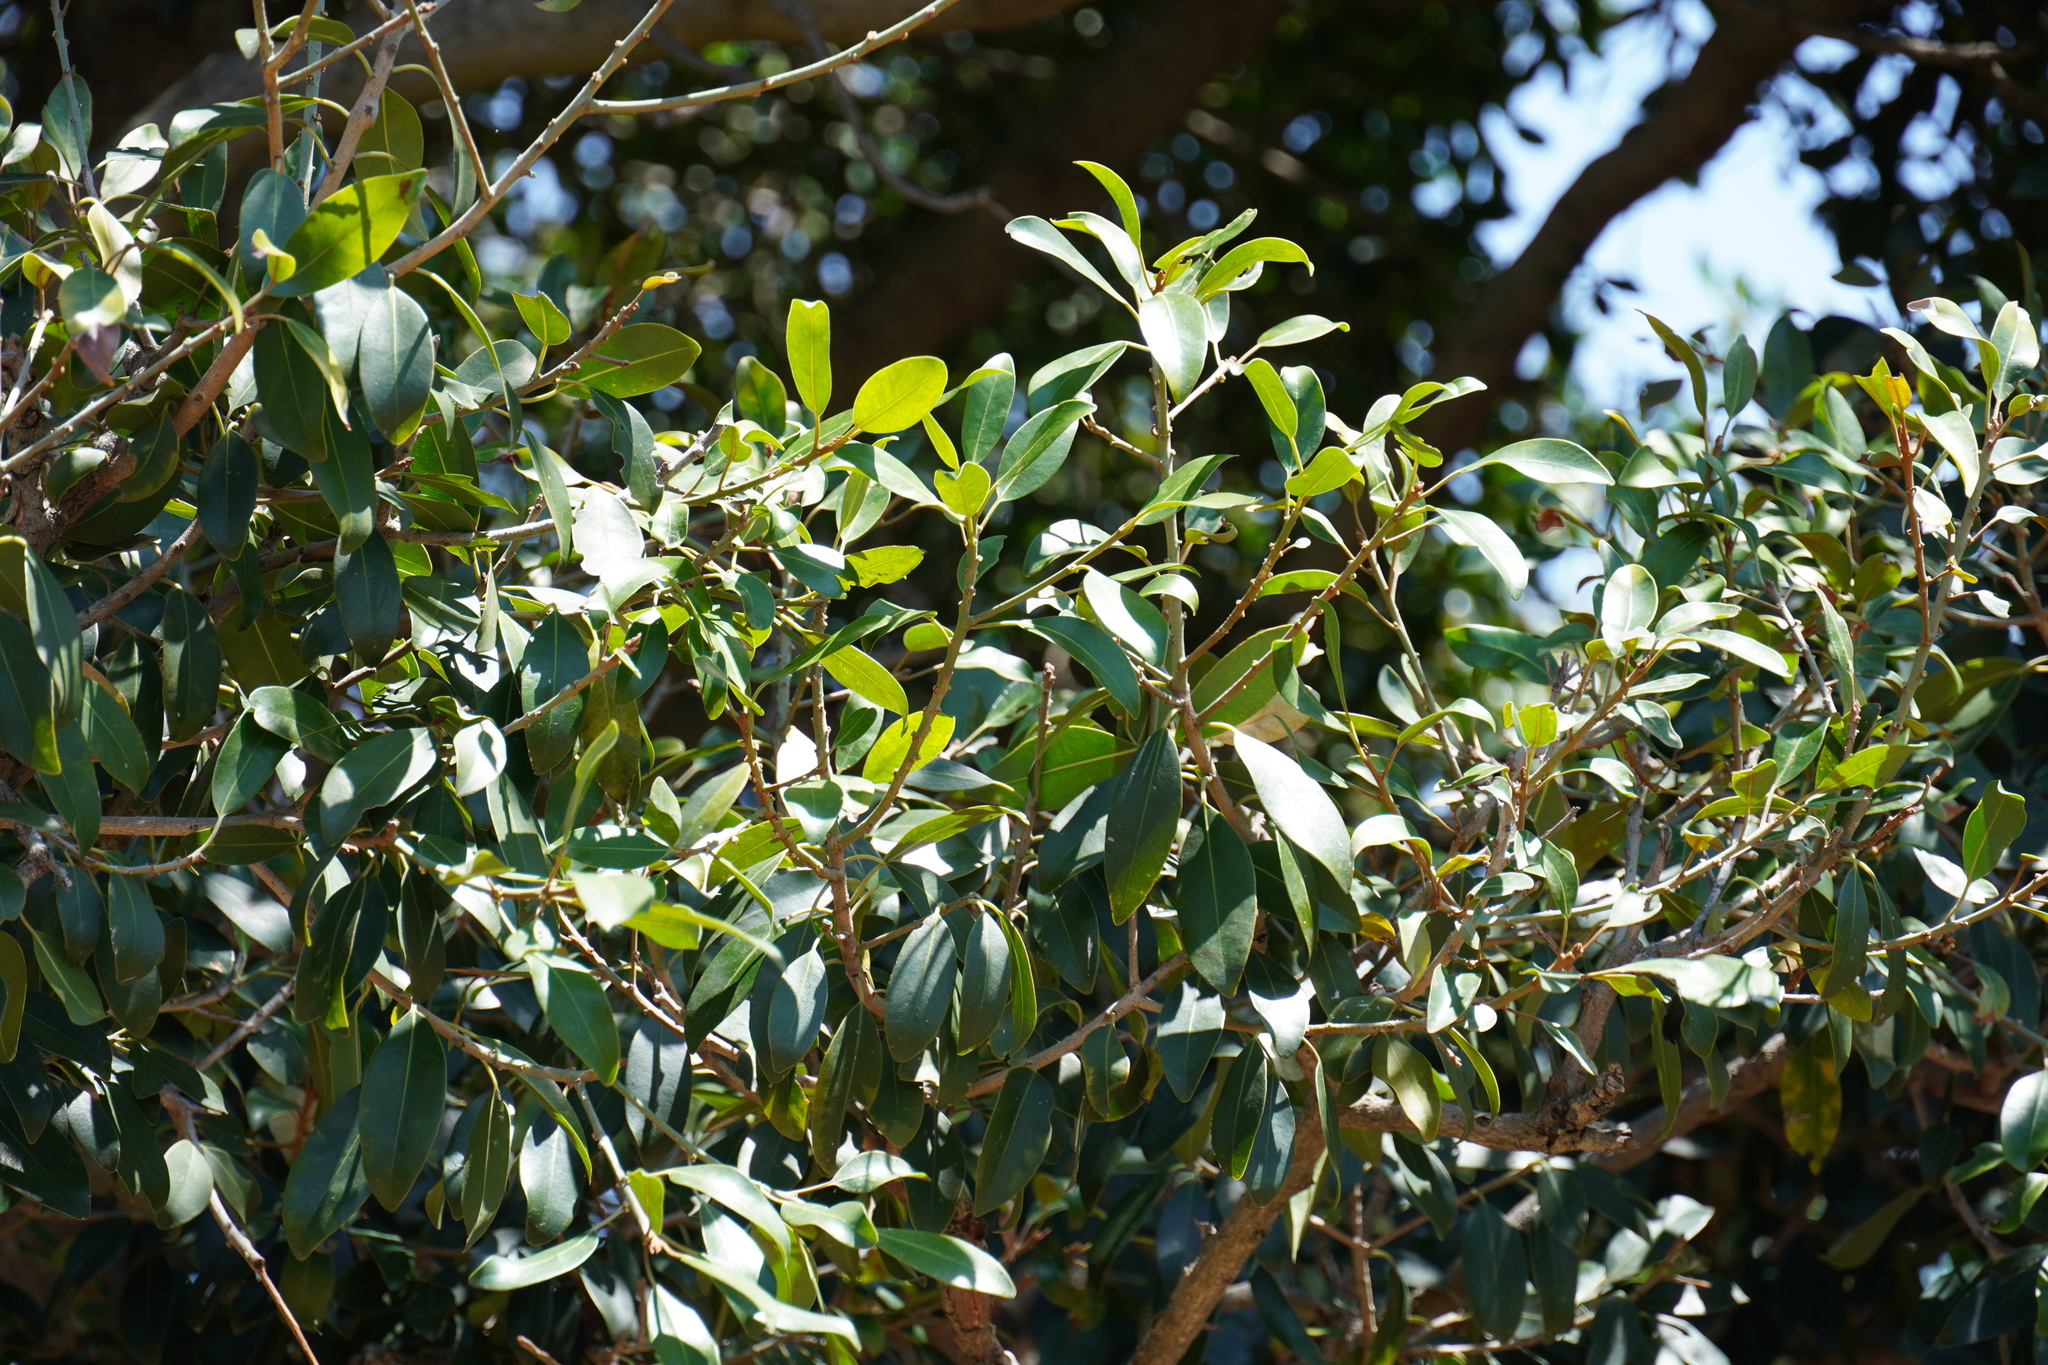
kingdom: Plantae
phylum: Tracheophyta
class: Magnoliopsida
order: Ericales
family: Sapotaceae
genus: Mimusops
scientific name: Mimusops zeyheri
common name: Transvaal red milkwood
